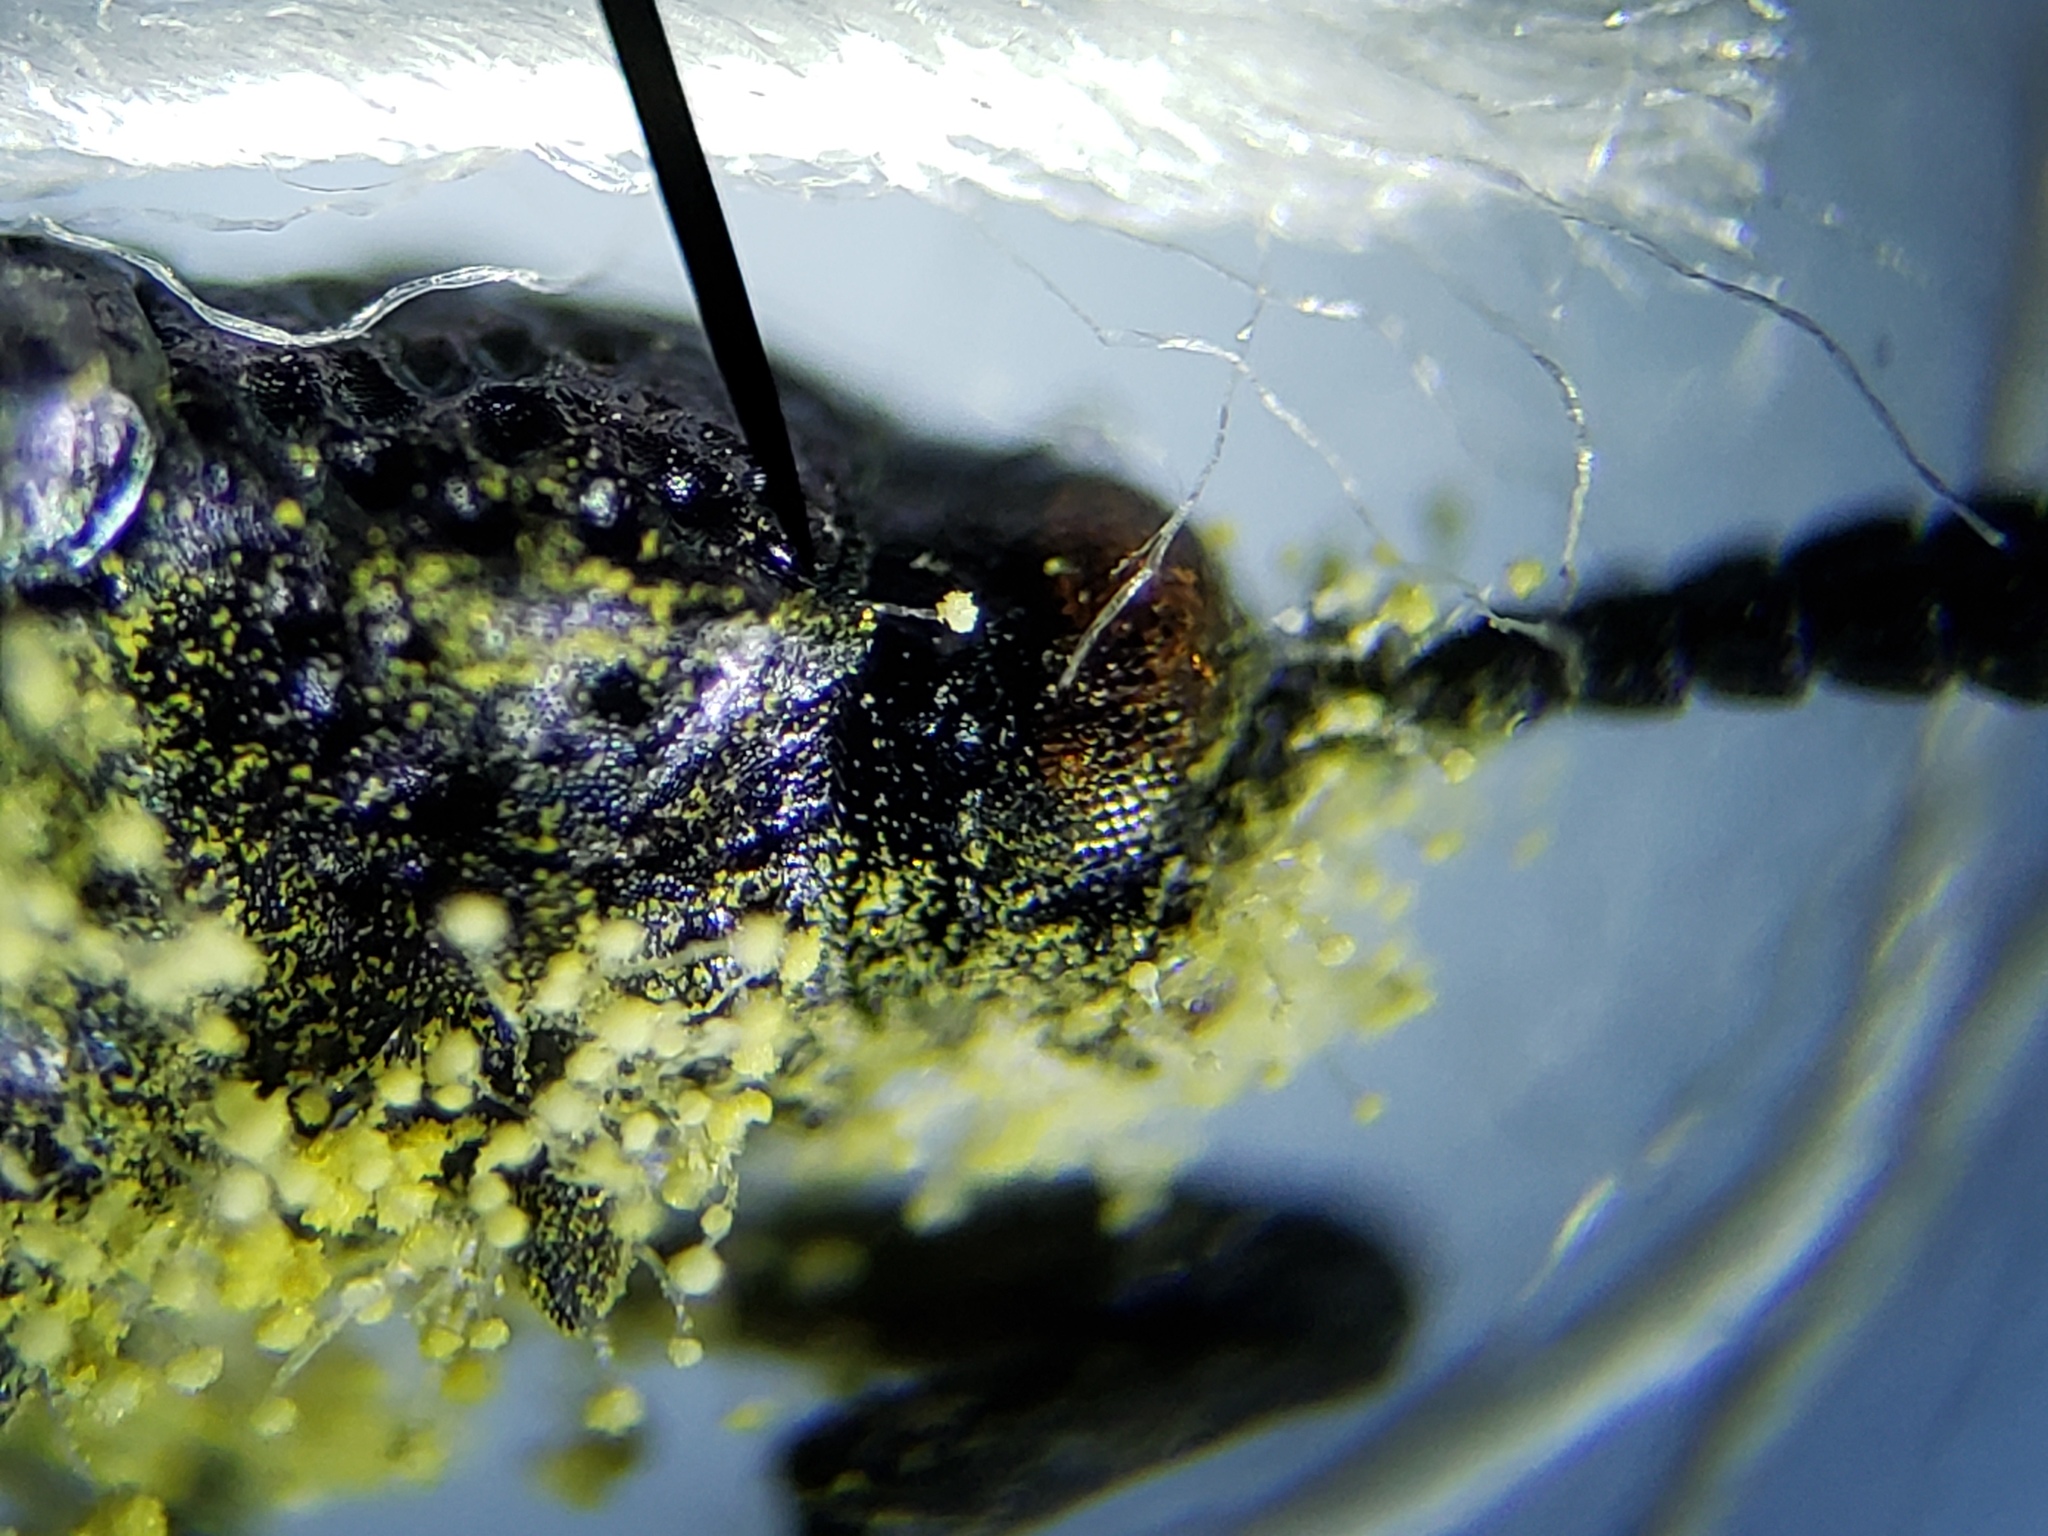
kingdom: Animalia
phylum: Arthropoda
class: Insecta
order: Coleoptera
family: Chrysomelidae
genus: Microrhopala
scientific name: Microrhopala erebus
